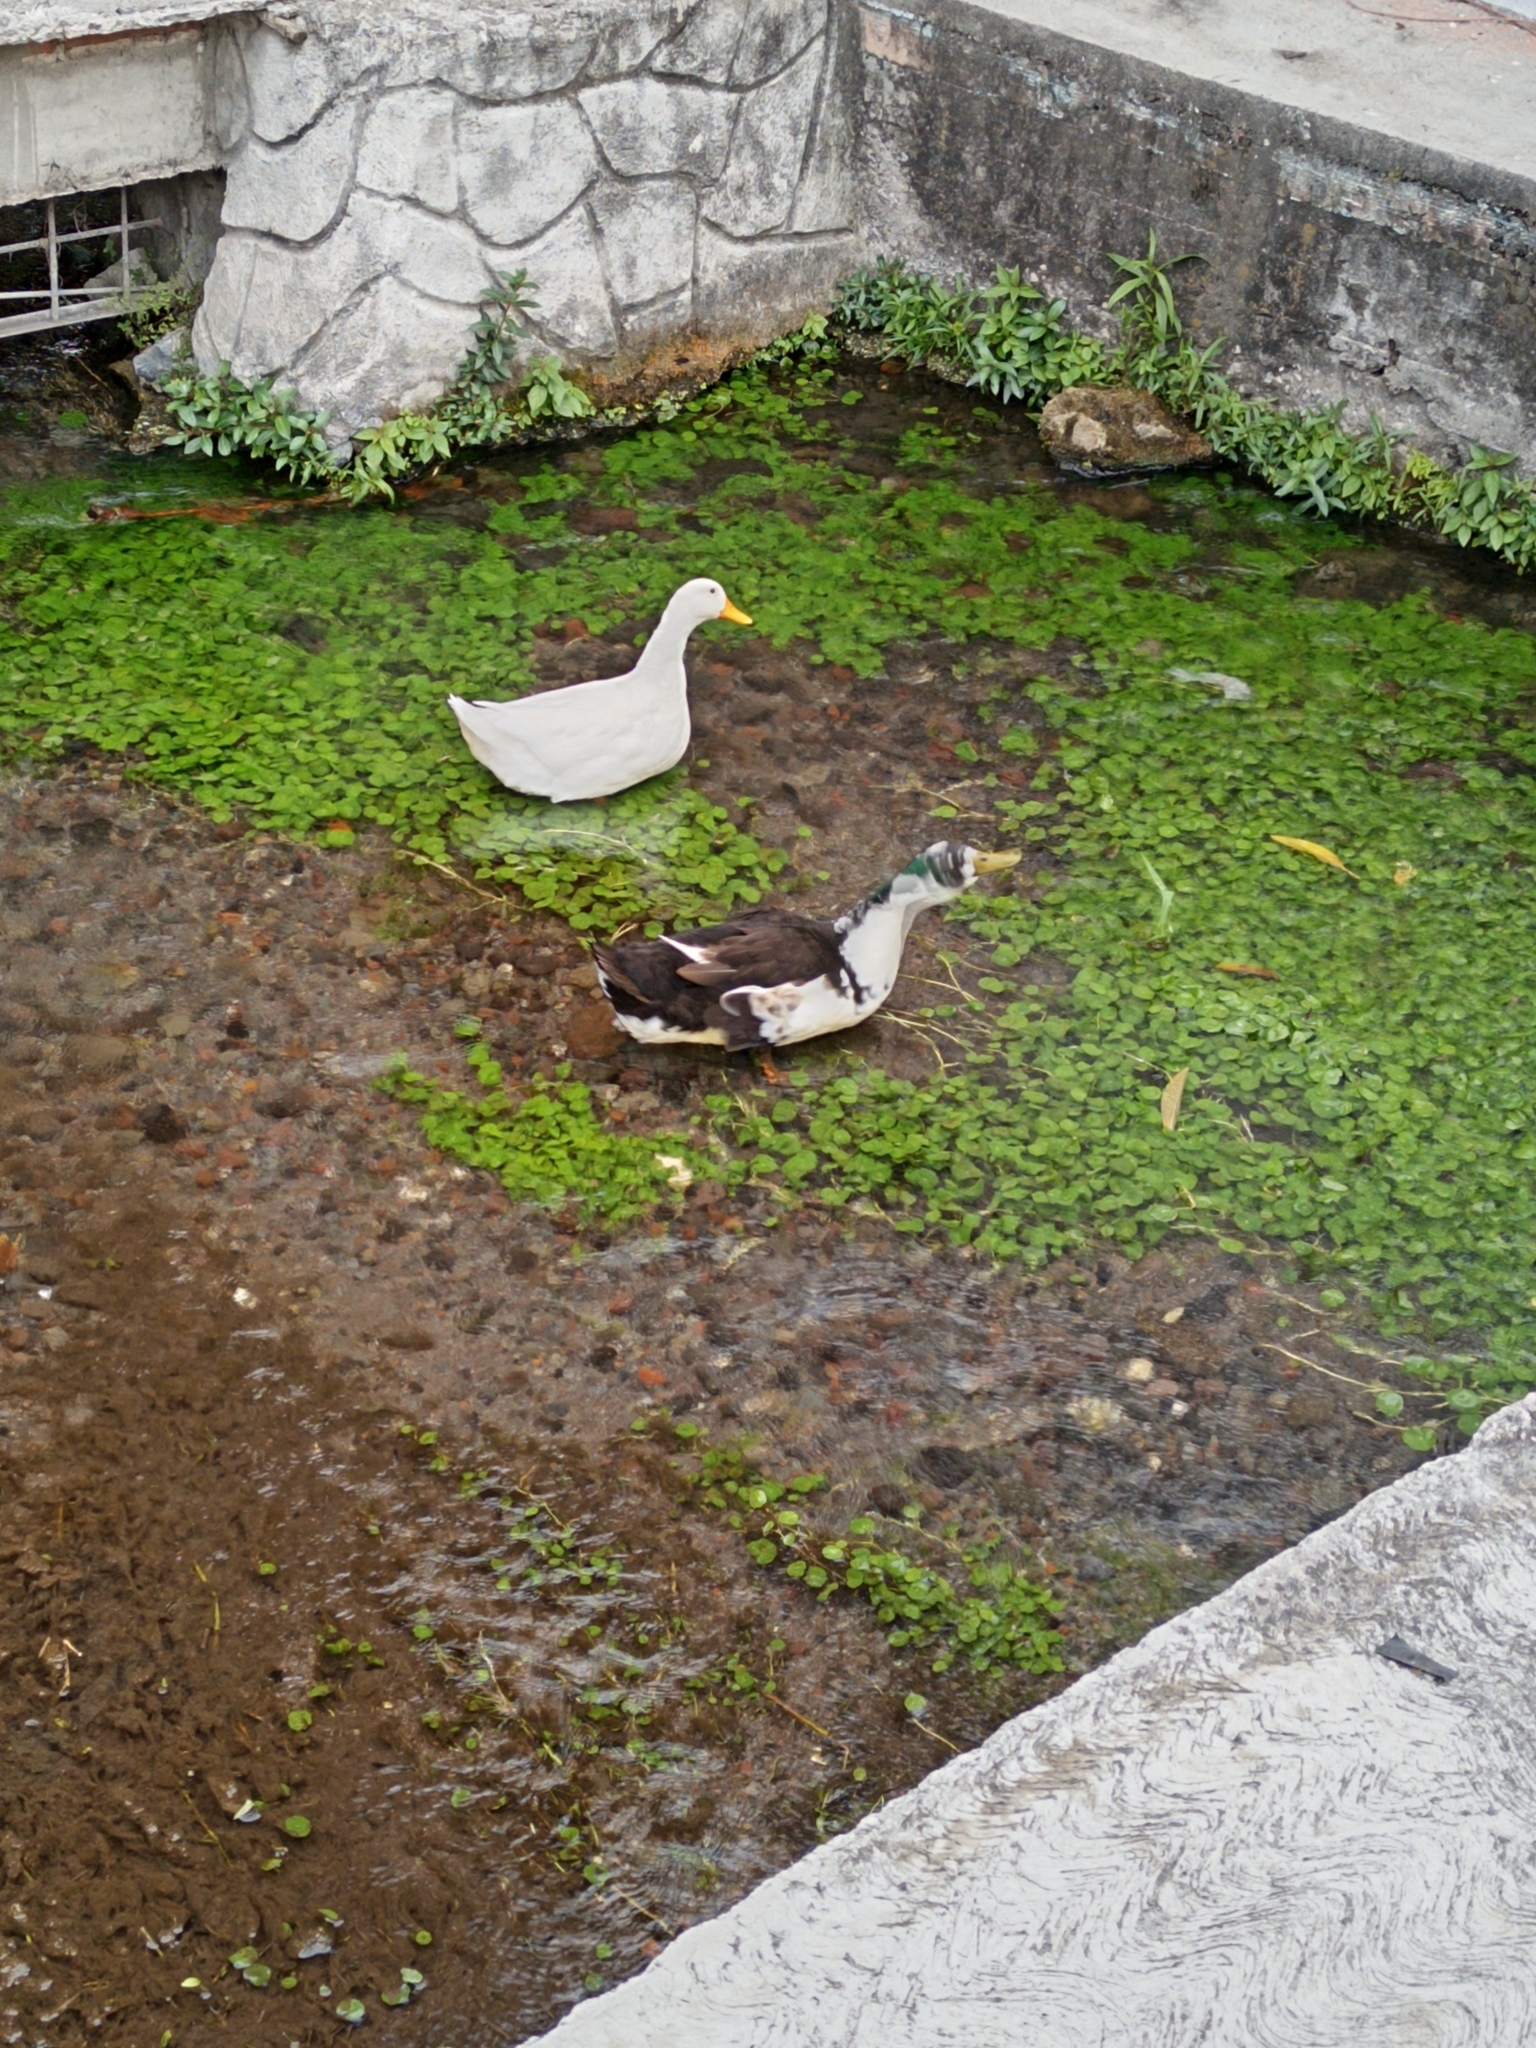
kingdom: Animalia
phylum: Chordata
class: Aves
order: Anseriformes
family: Anatidae
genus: Anas
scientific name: Anas platyrhynchos
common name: Mallard
